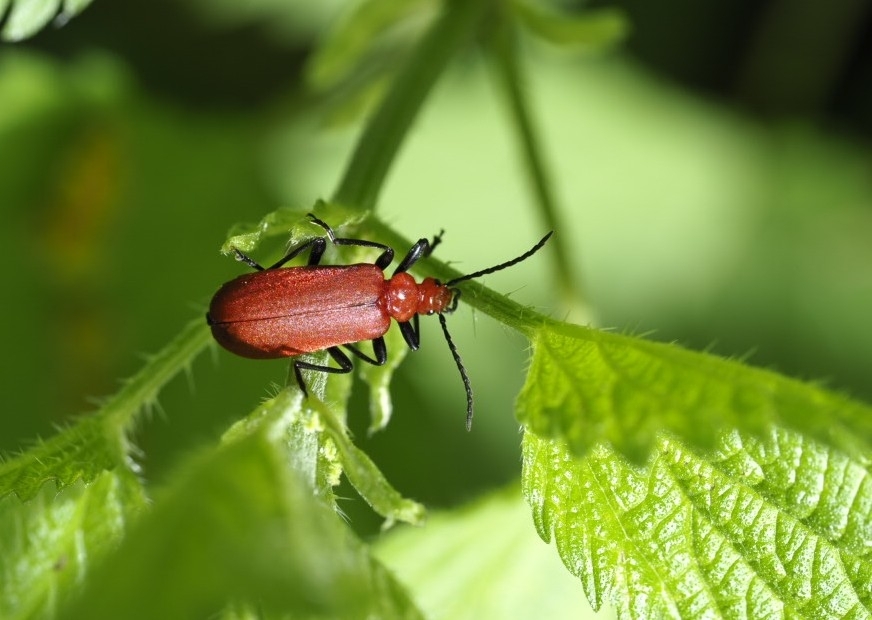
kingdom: Animalia
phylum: Arthropoda
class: Insecta
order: Coleoptera
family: Pyrochroidae
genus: Pyrochroa
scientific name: Pyrochroa serraticornis
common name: Red-headed cardinal beetle
